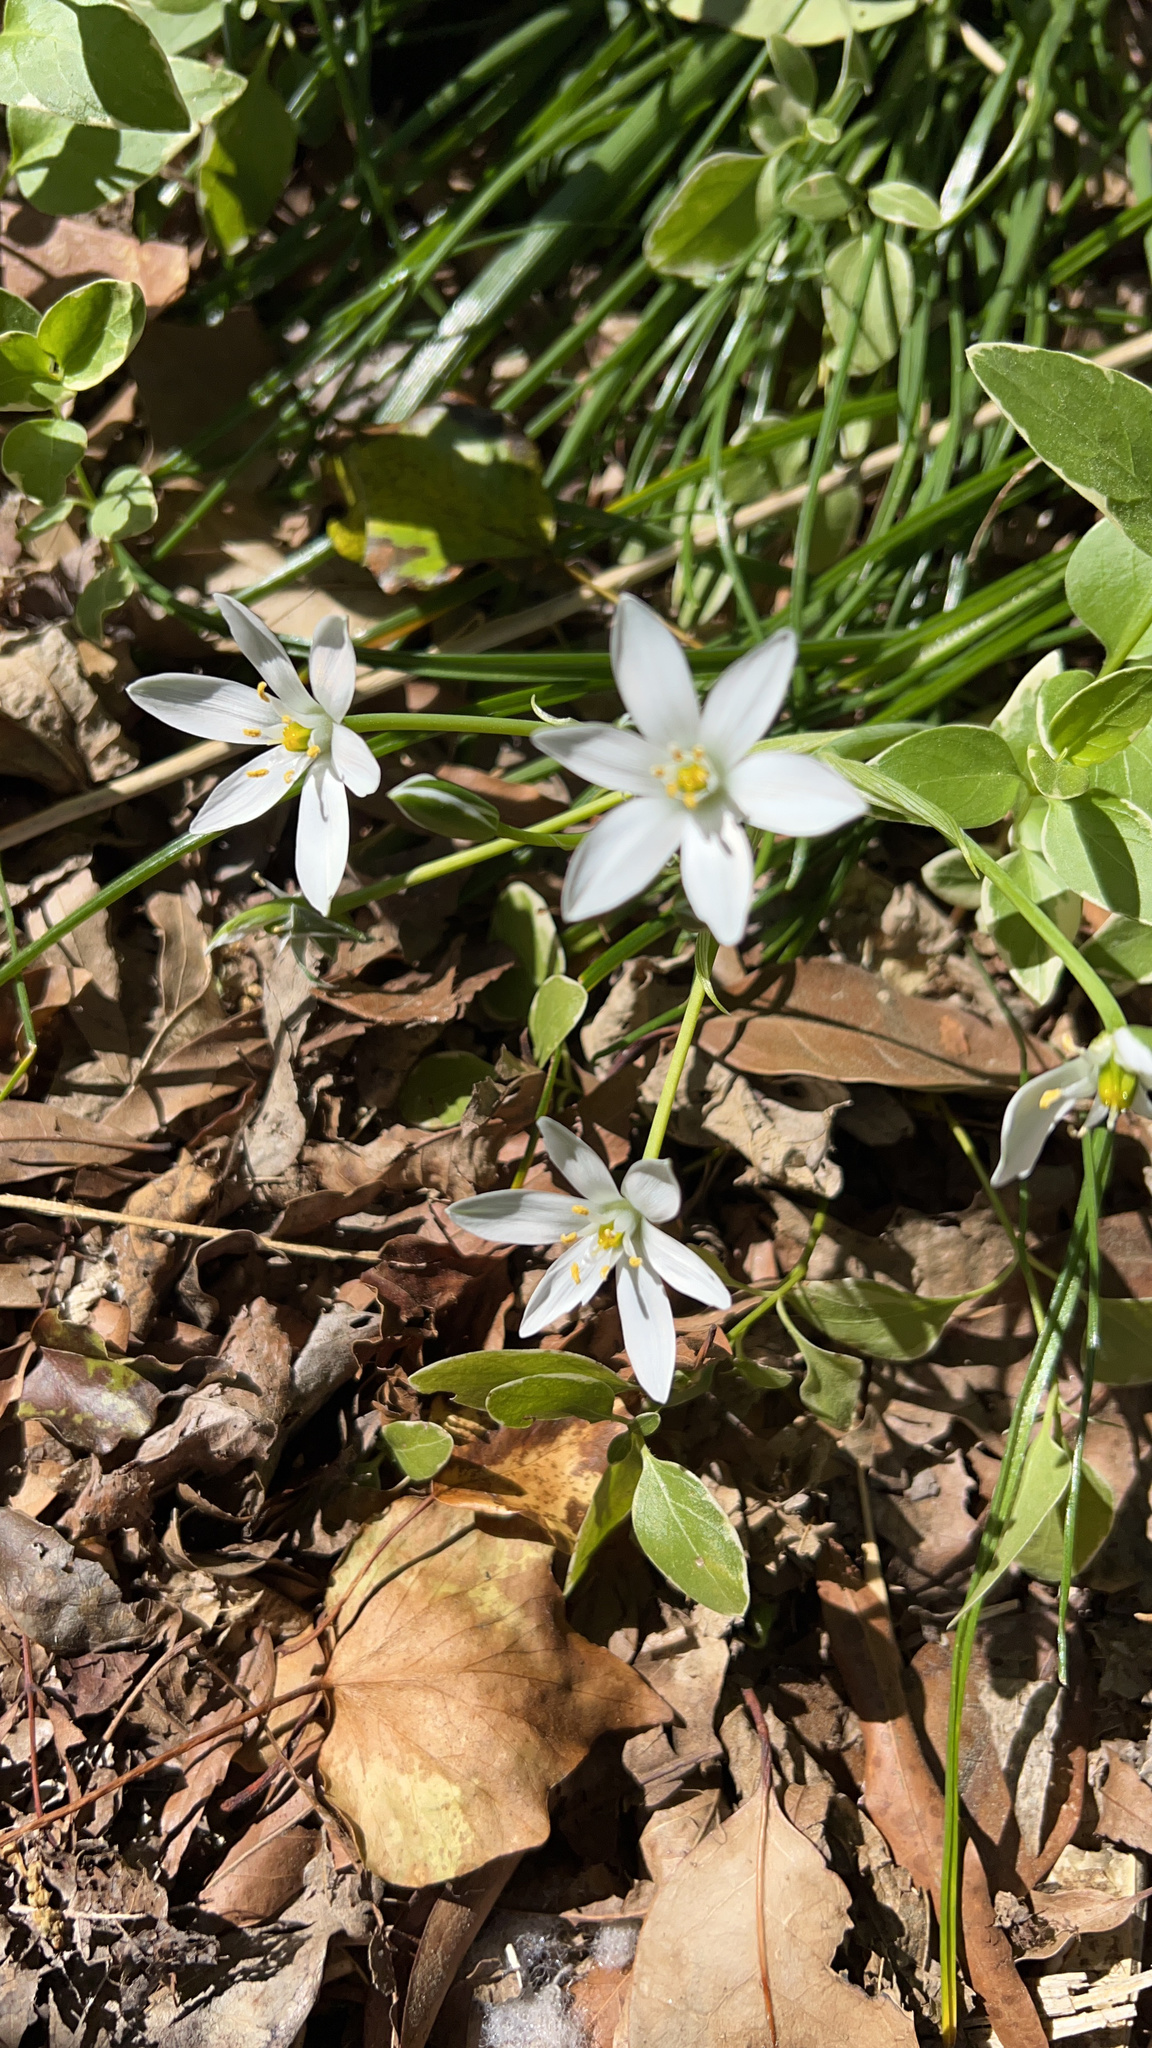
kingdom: Plantae
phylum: Tracheophyta
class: Liliopsida
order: Asparagales
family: Asparagaceae
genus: Ornithogalum
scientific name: Ornithogalum umbellatum
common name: Garden star-of-bethlehem
